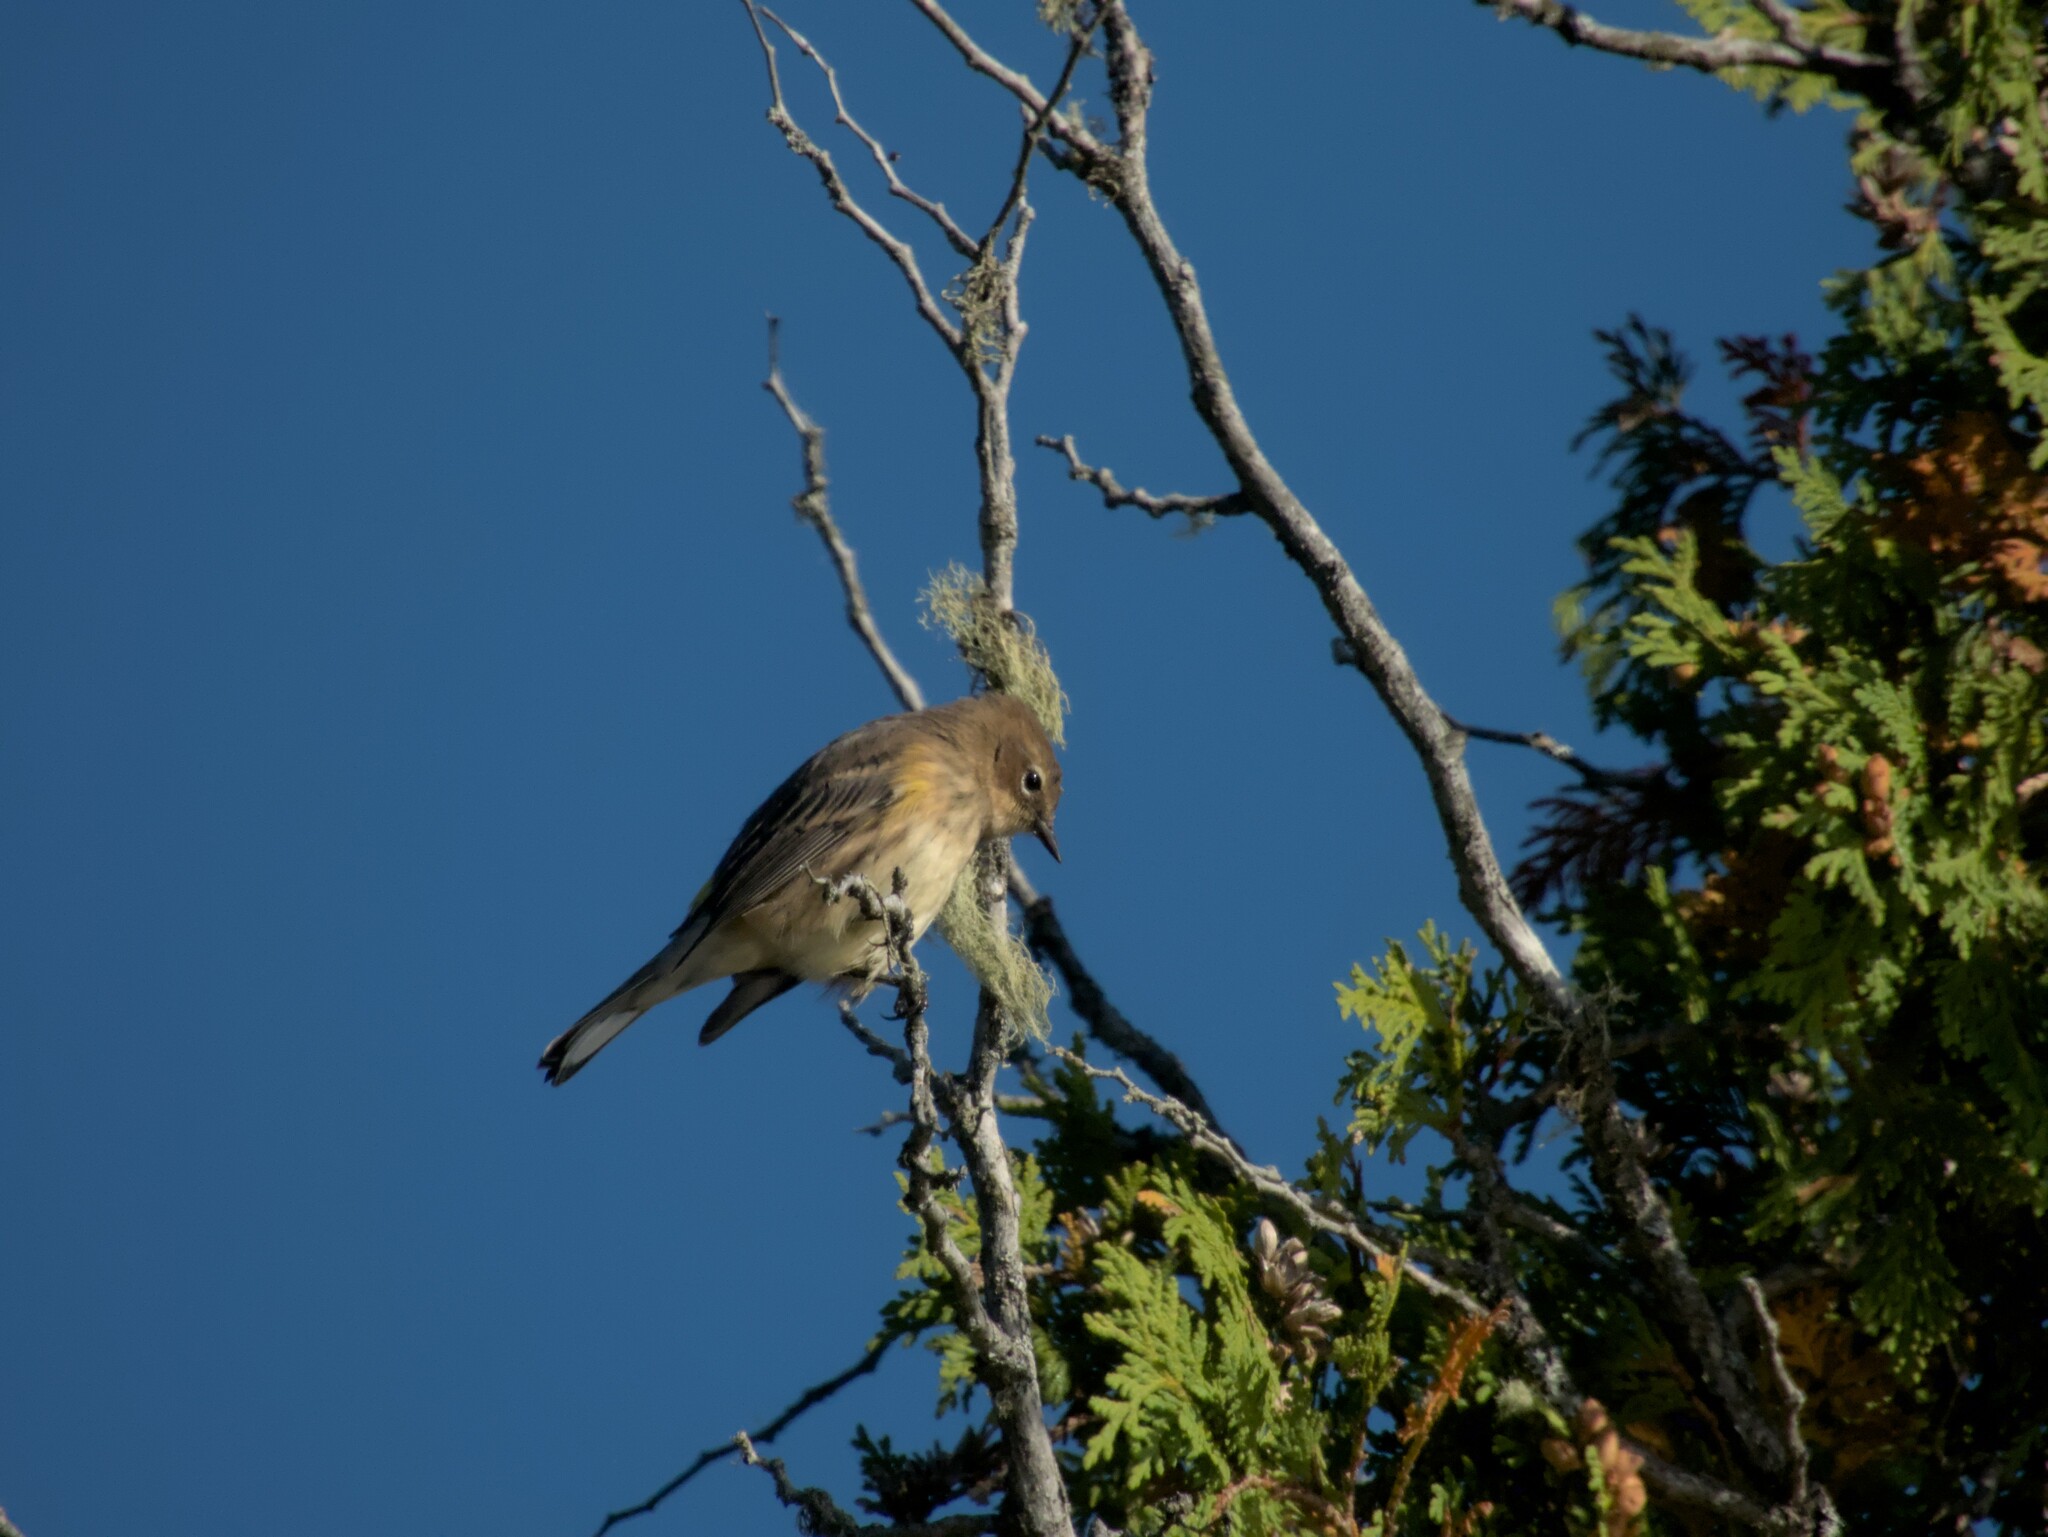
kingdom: Animalia
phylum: Chordata
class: Aves
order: Passeriformes
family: Parulidae
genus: Setophaga
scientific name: Setophaga coronata
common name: Myrtle warbler
